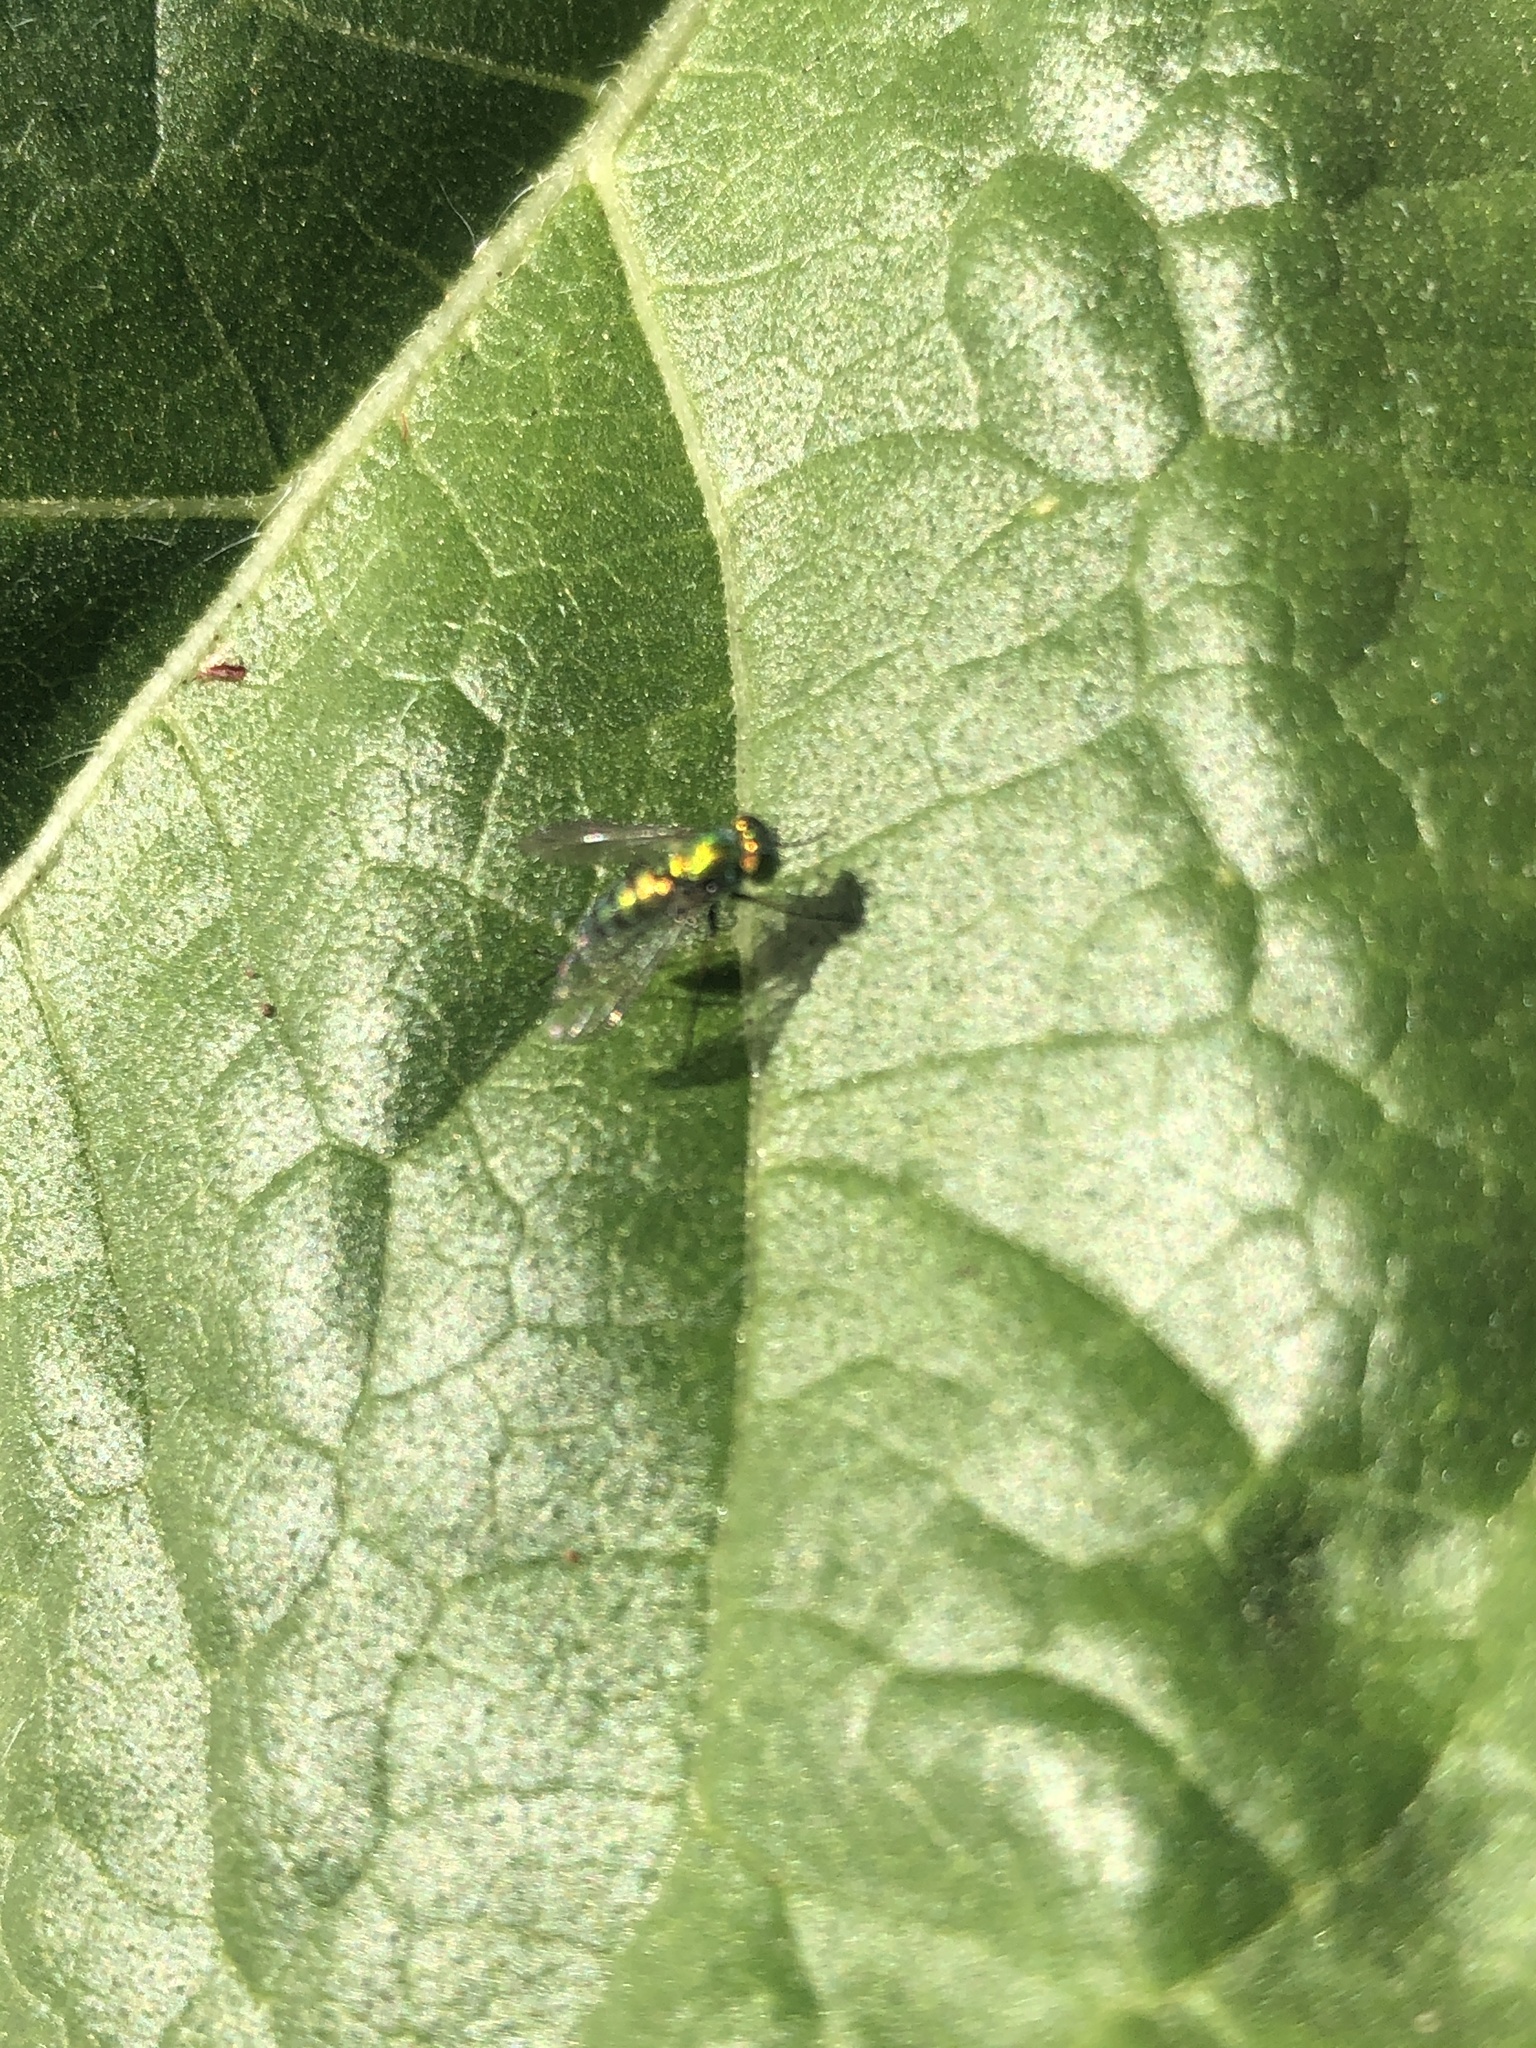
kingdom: Animalia
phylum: Arthropoda
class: Insecta
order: Diptera
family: Dolichopodidae
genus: Condylostylus
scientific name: Condylostylus longicornis
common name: Long-legged fly
